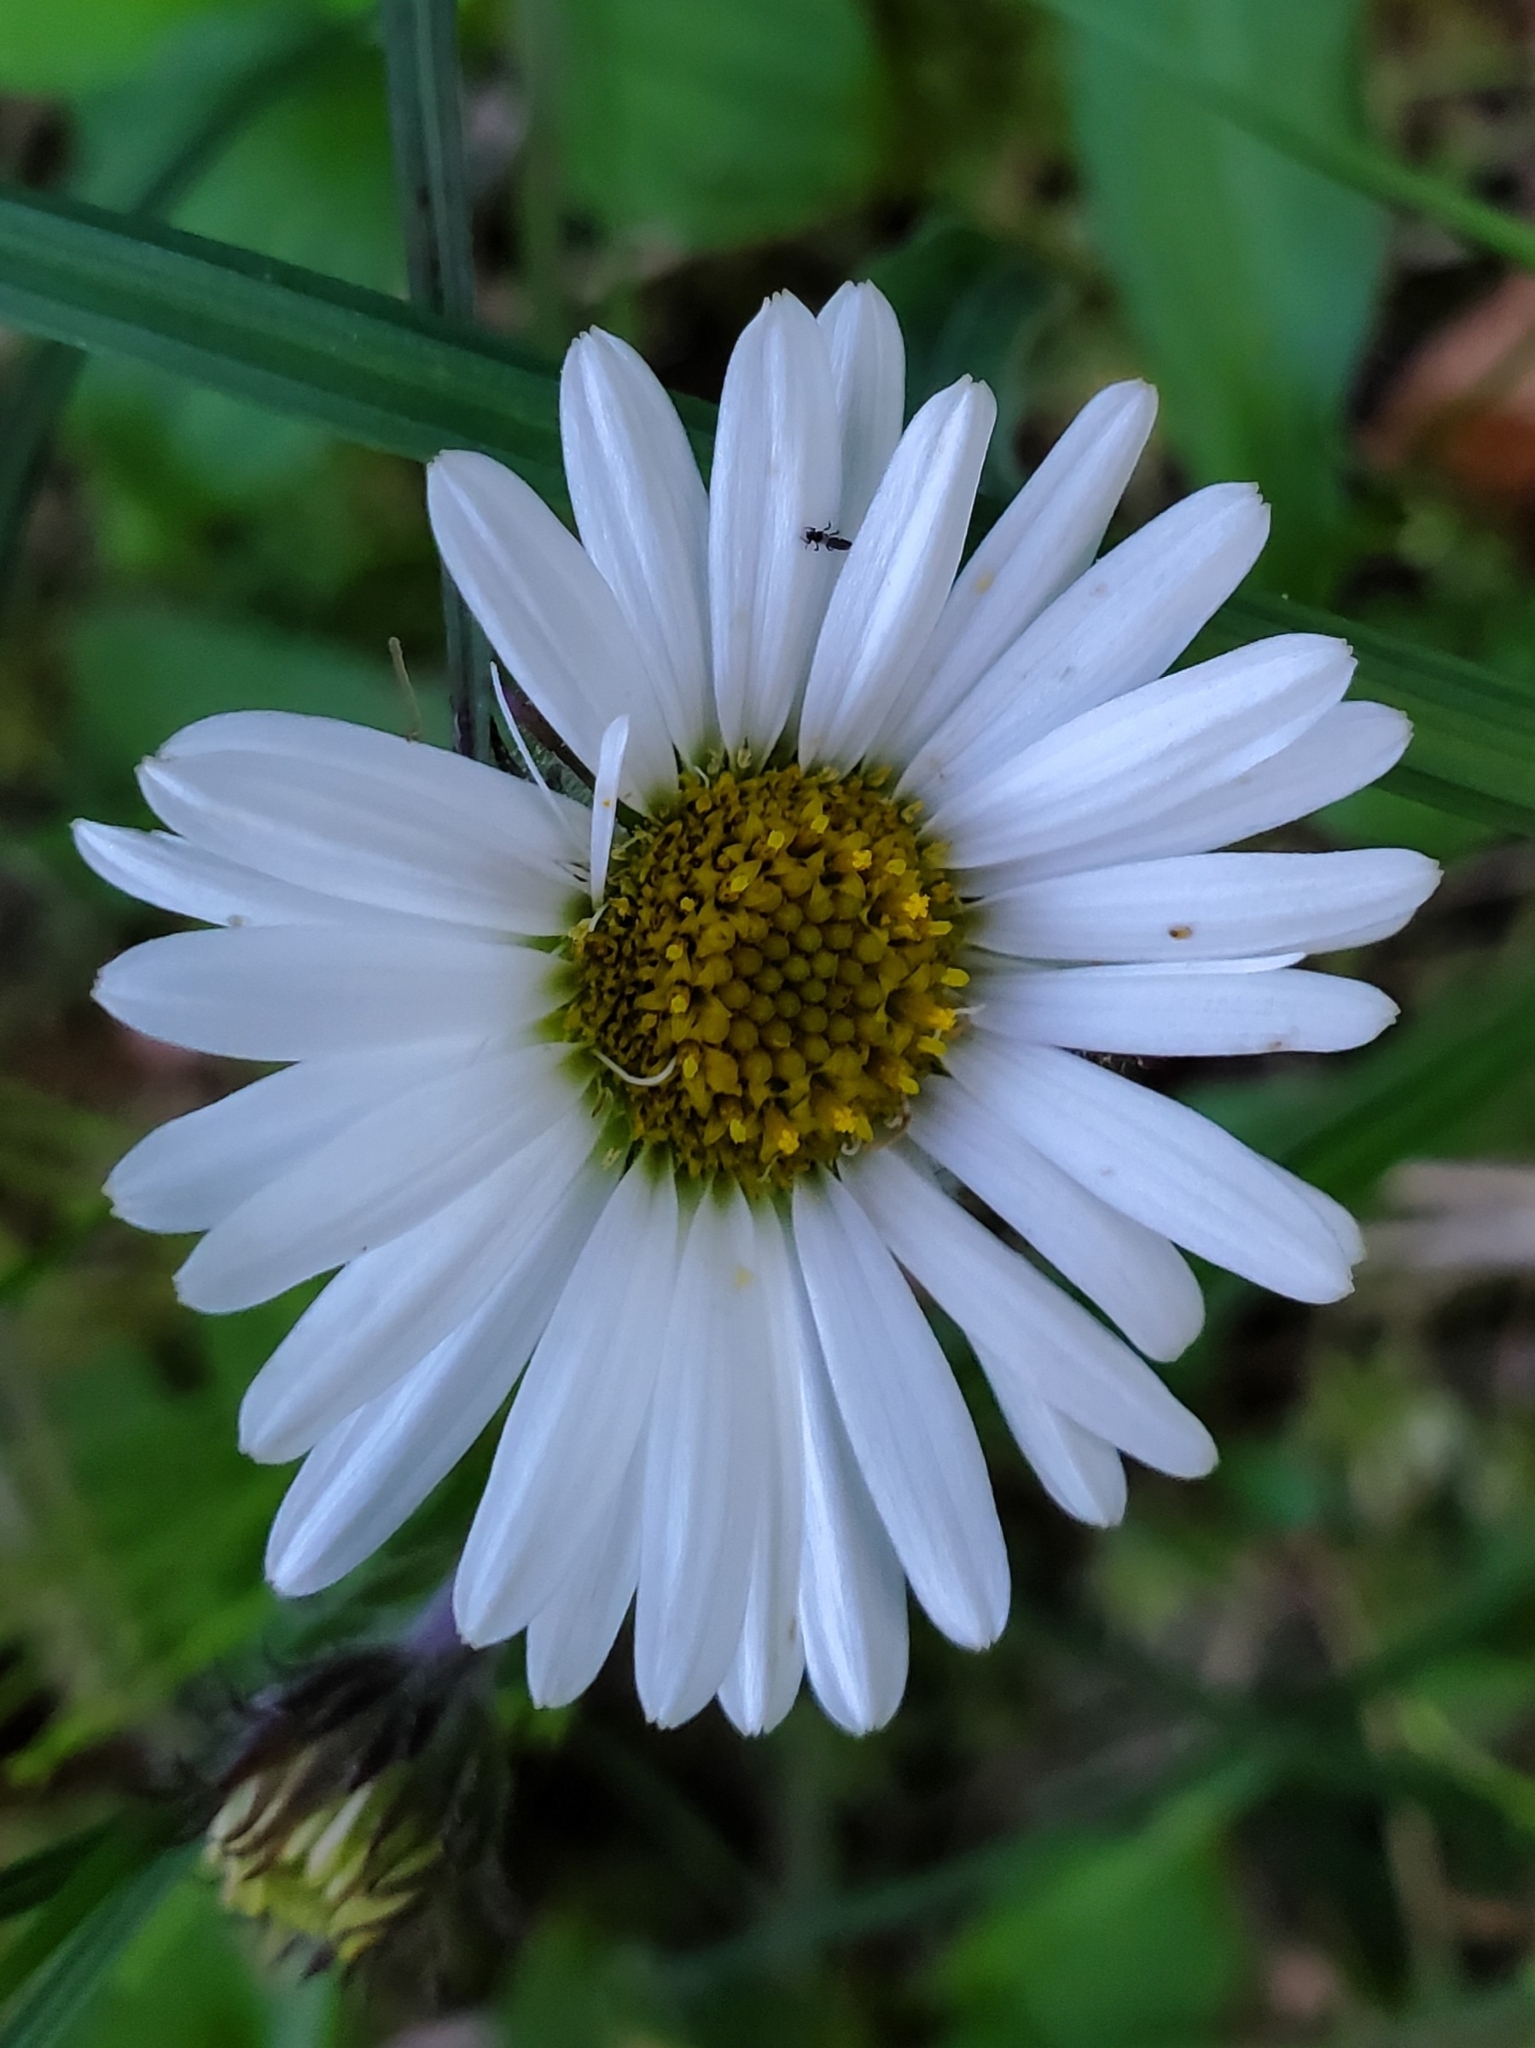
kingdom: Plantae
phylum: Tracheophyta
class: Magnoliopsida
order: Asterales
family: Asteraceae
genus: Erigeron
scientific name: Erigeron peregrinus
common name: Peregrine fleabane
